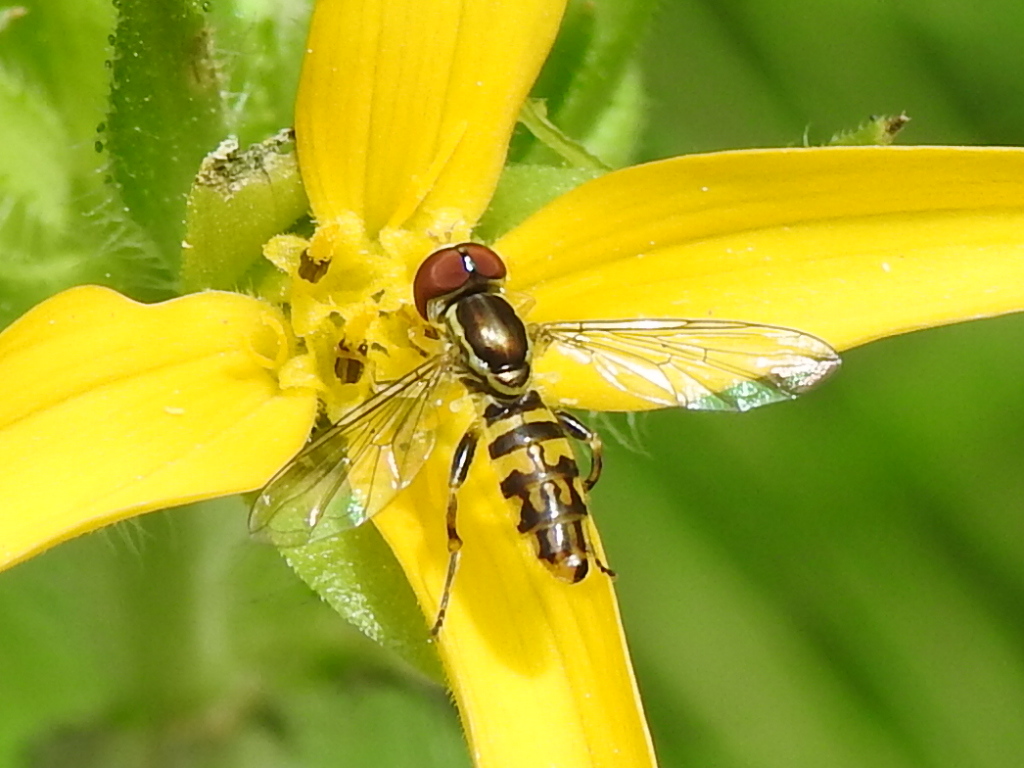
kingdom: Animalia
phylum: Arthropoda
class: Insecta
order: Diptera
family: Syrphidae
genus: Toxomerus
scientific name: Toxomerus geminatus
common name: Eastern calligrapher
